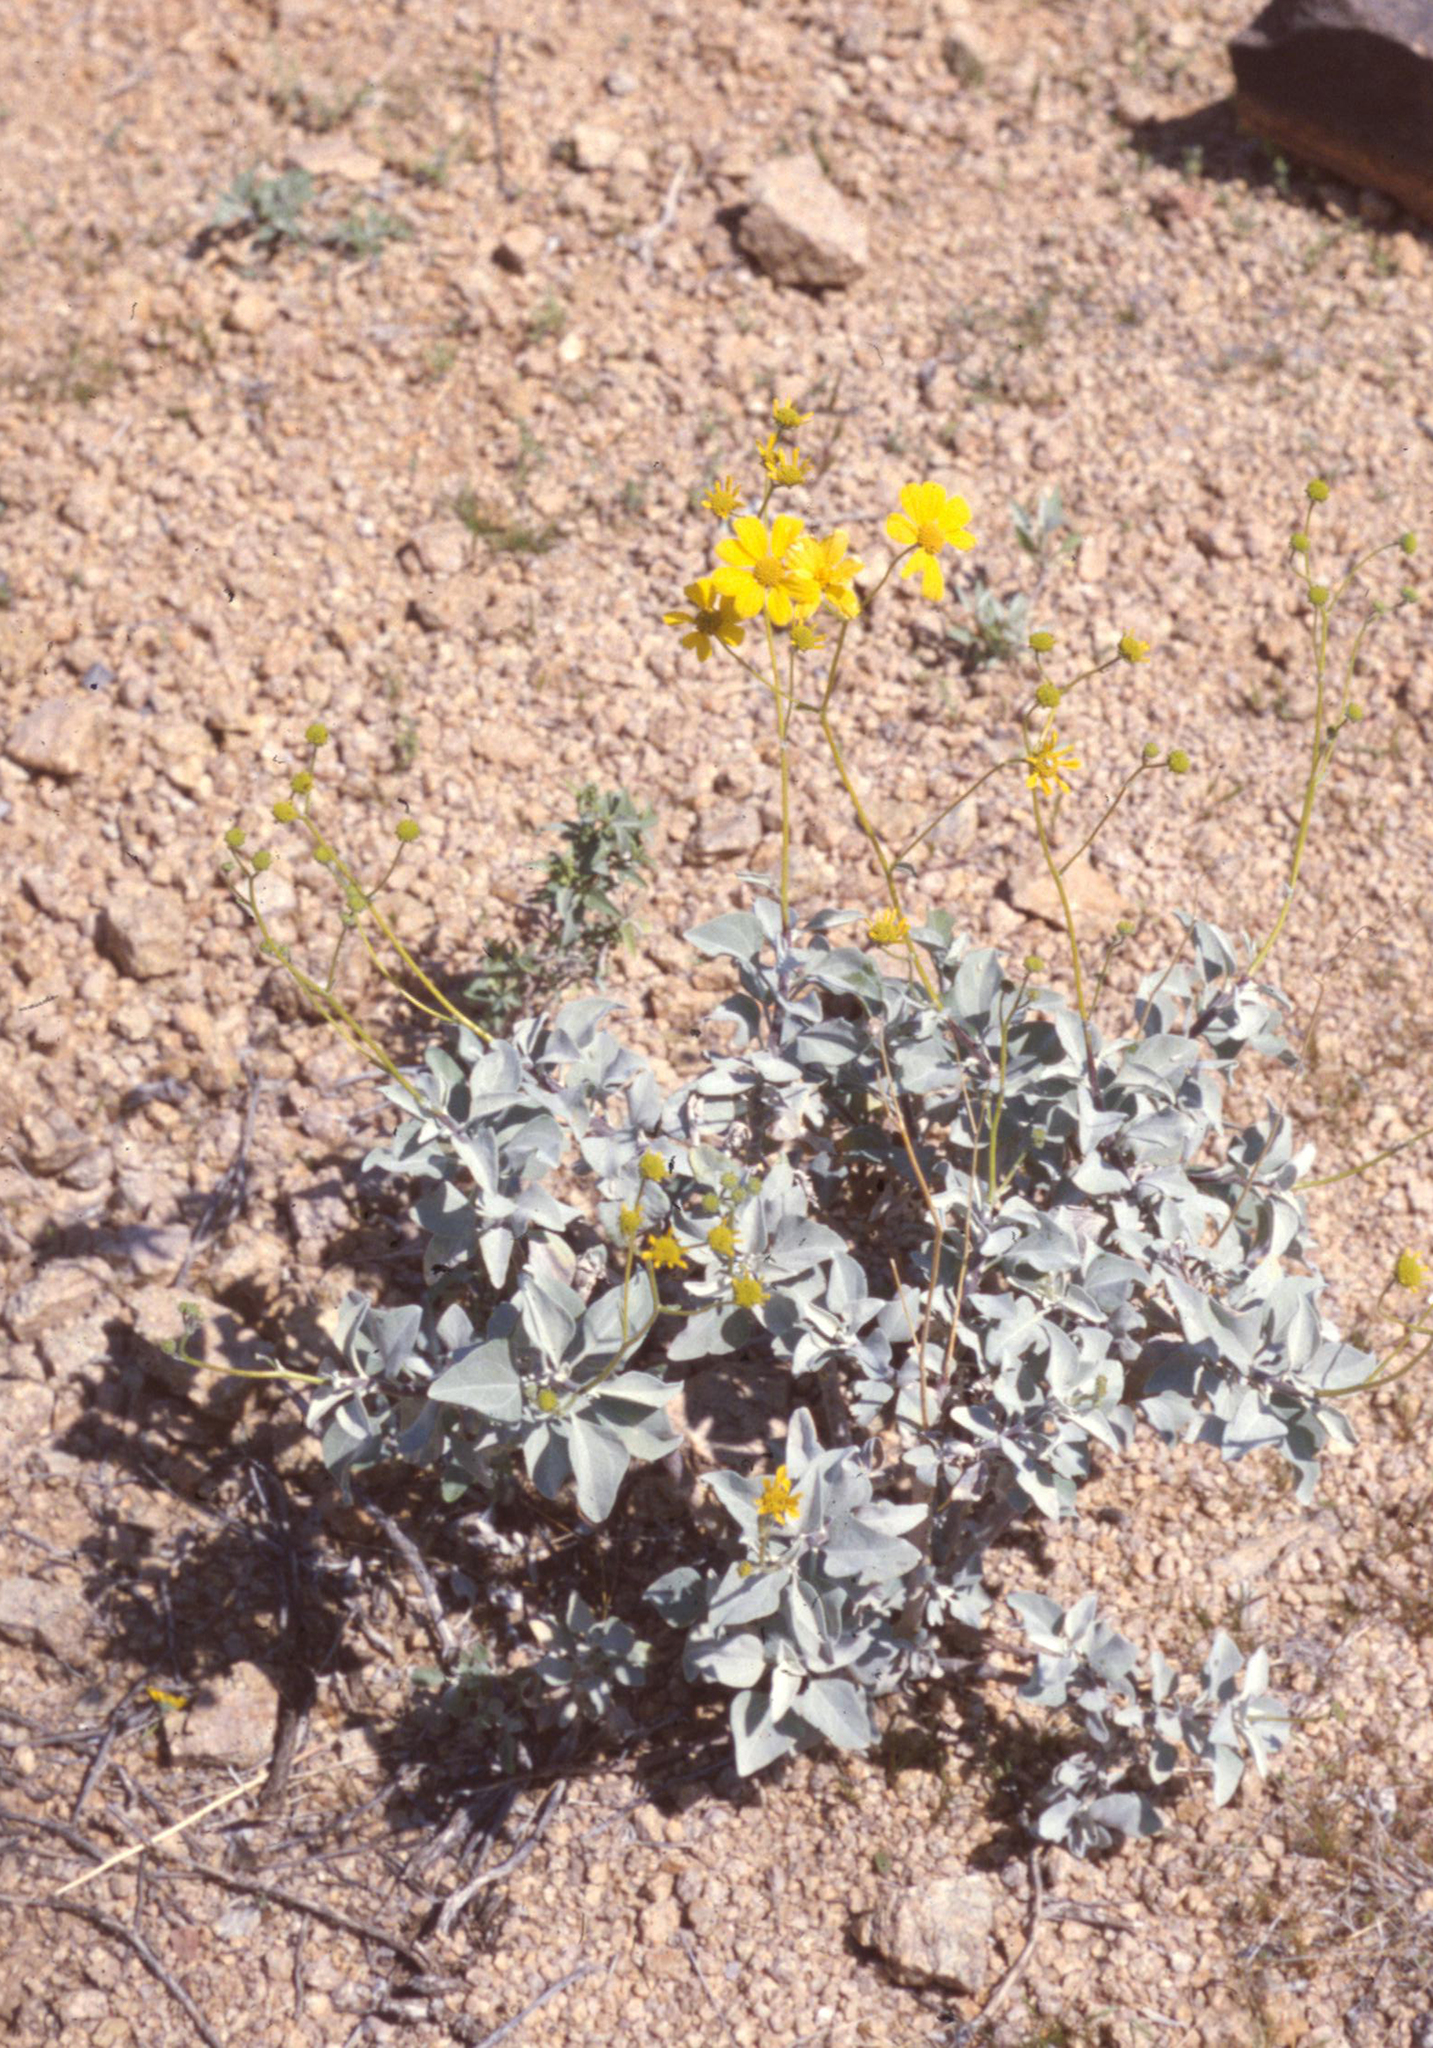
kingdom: Plantae
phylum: Tracheophyta
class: Magnoliopsida
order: Asterales
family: Asteraceae
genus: Encelia
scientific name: Encelia farinosa
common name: Brittlebush
